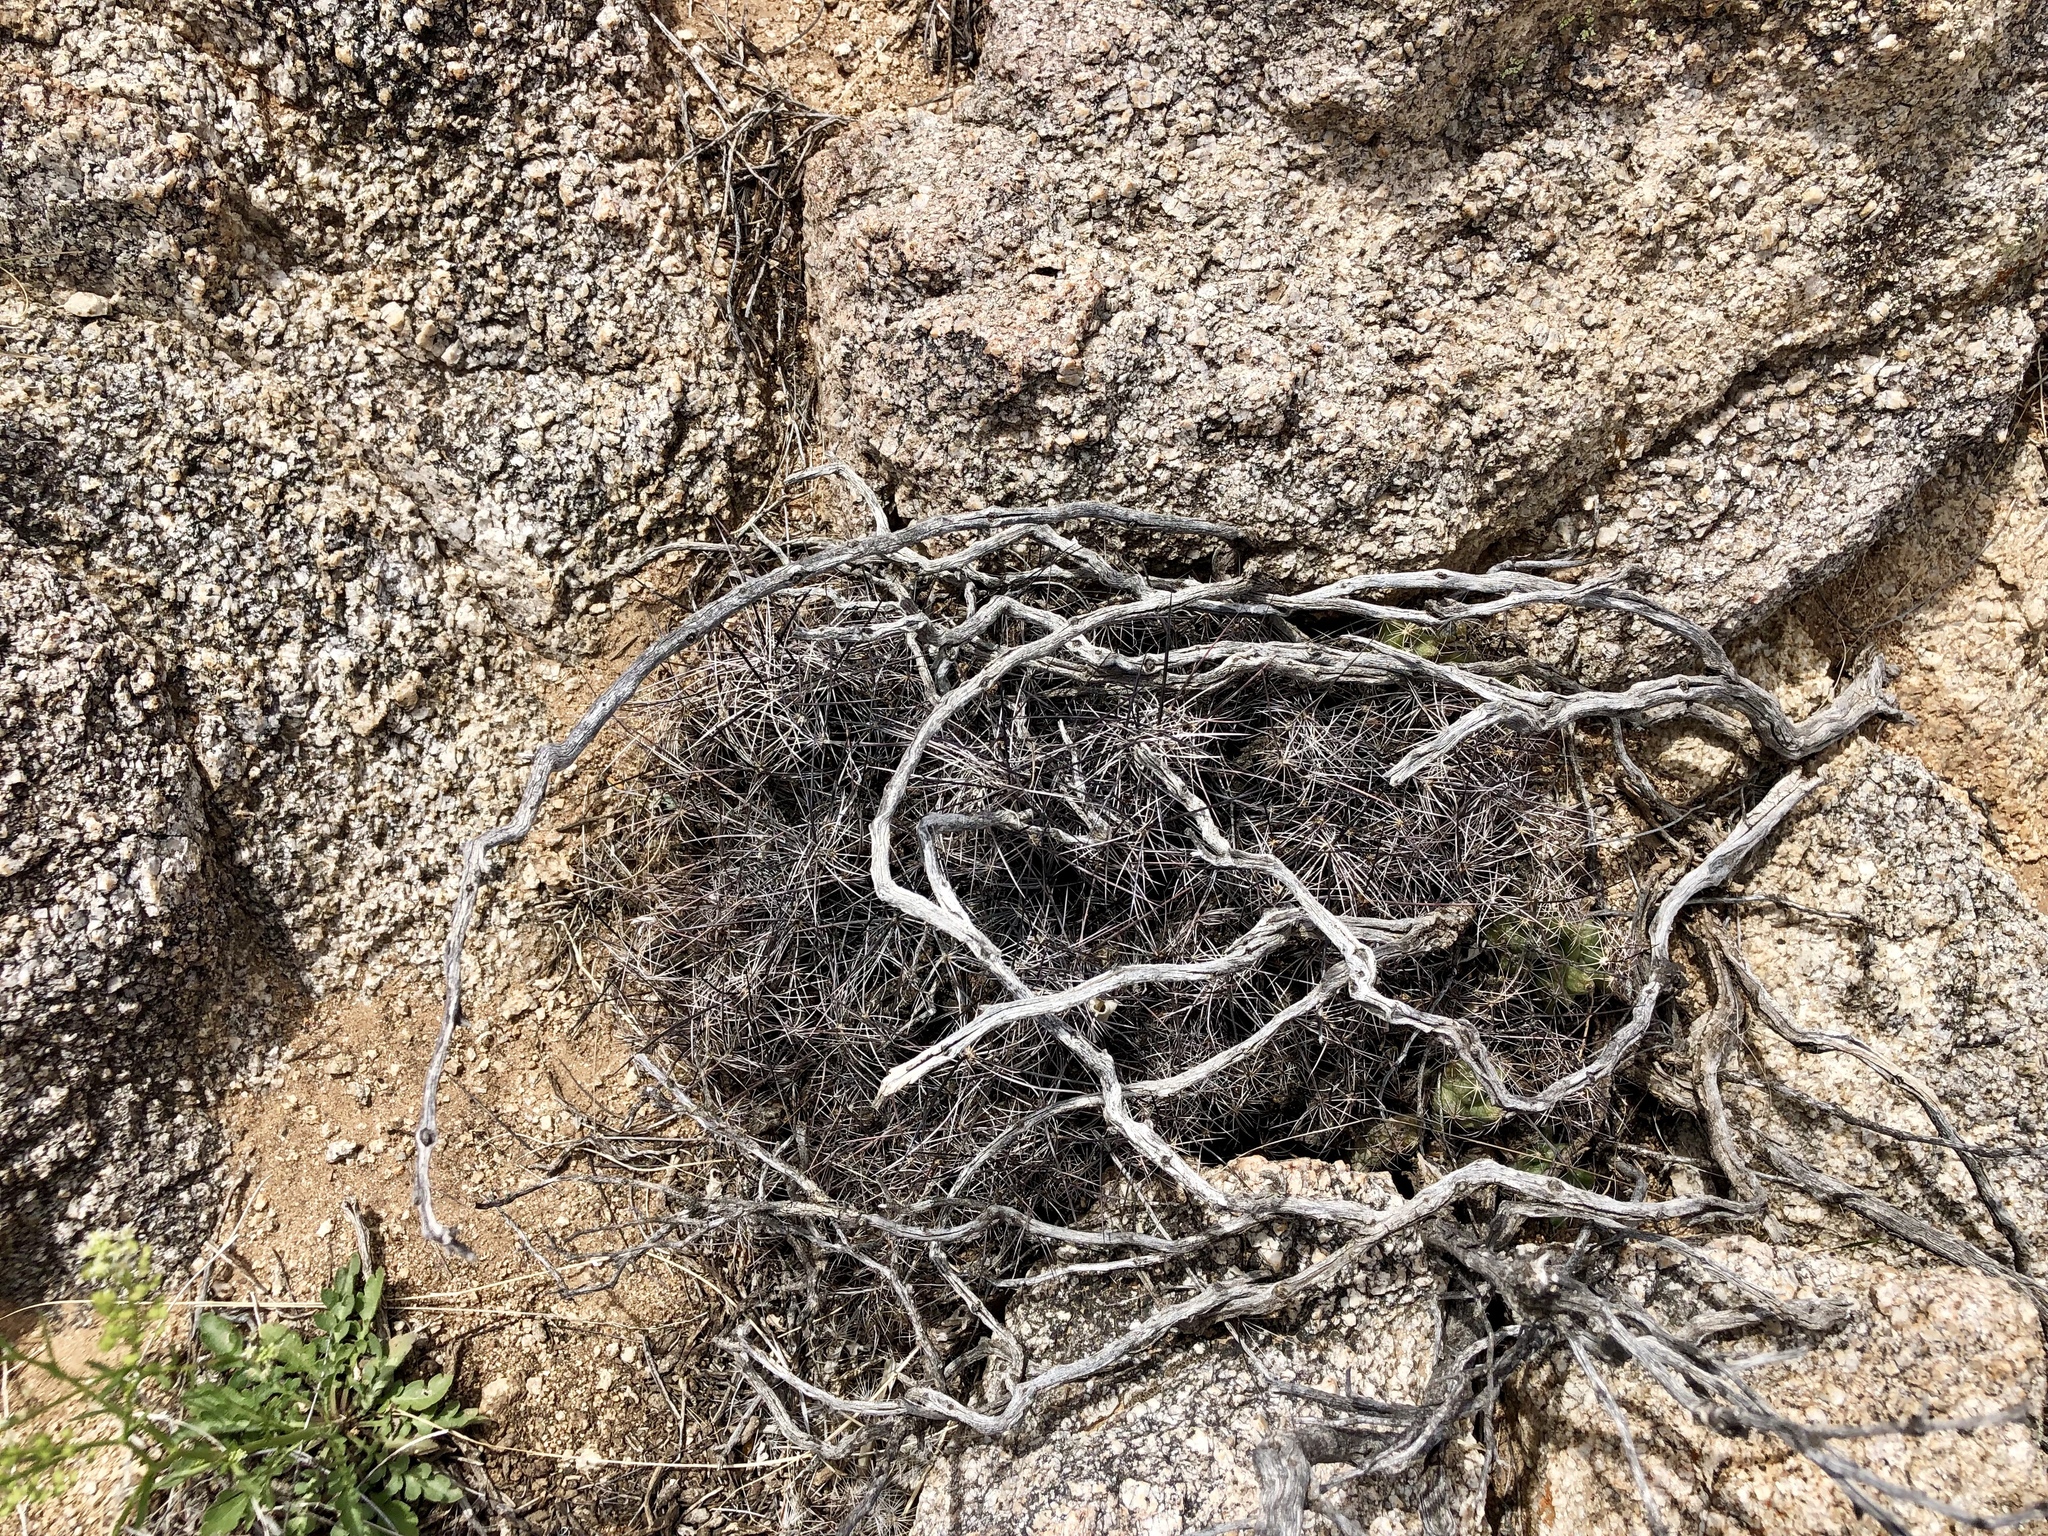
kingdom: Plantae
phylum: Tracheophyta
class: Magnoliopsida
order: Caryophyllales
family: Cactaceae
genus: Coryphantha
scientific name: Coryphantha macromeris
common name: Nipple beehive cactus
